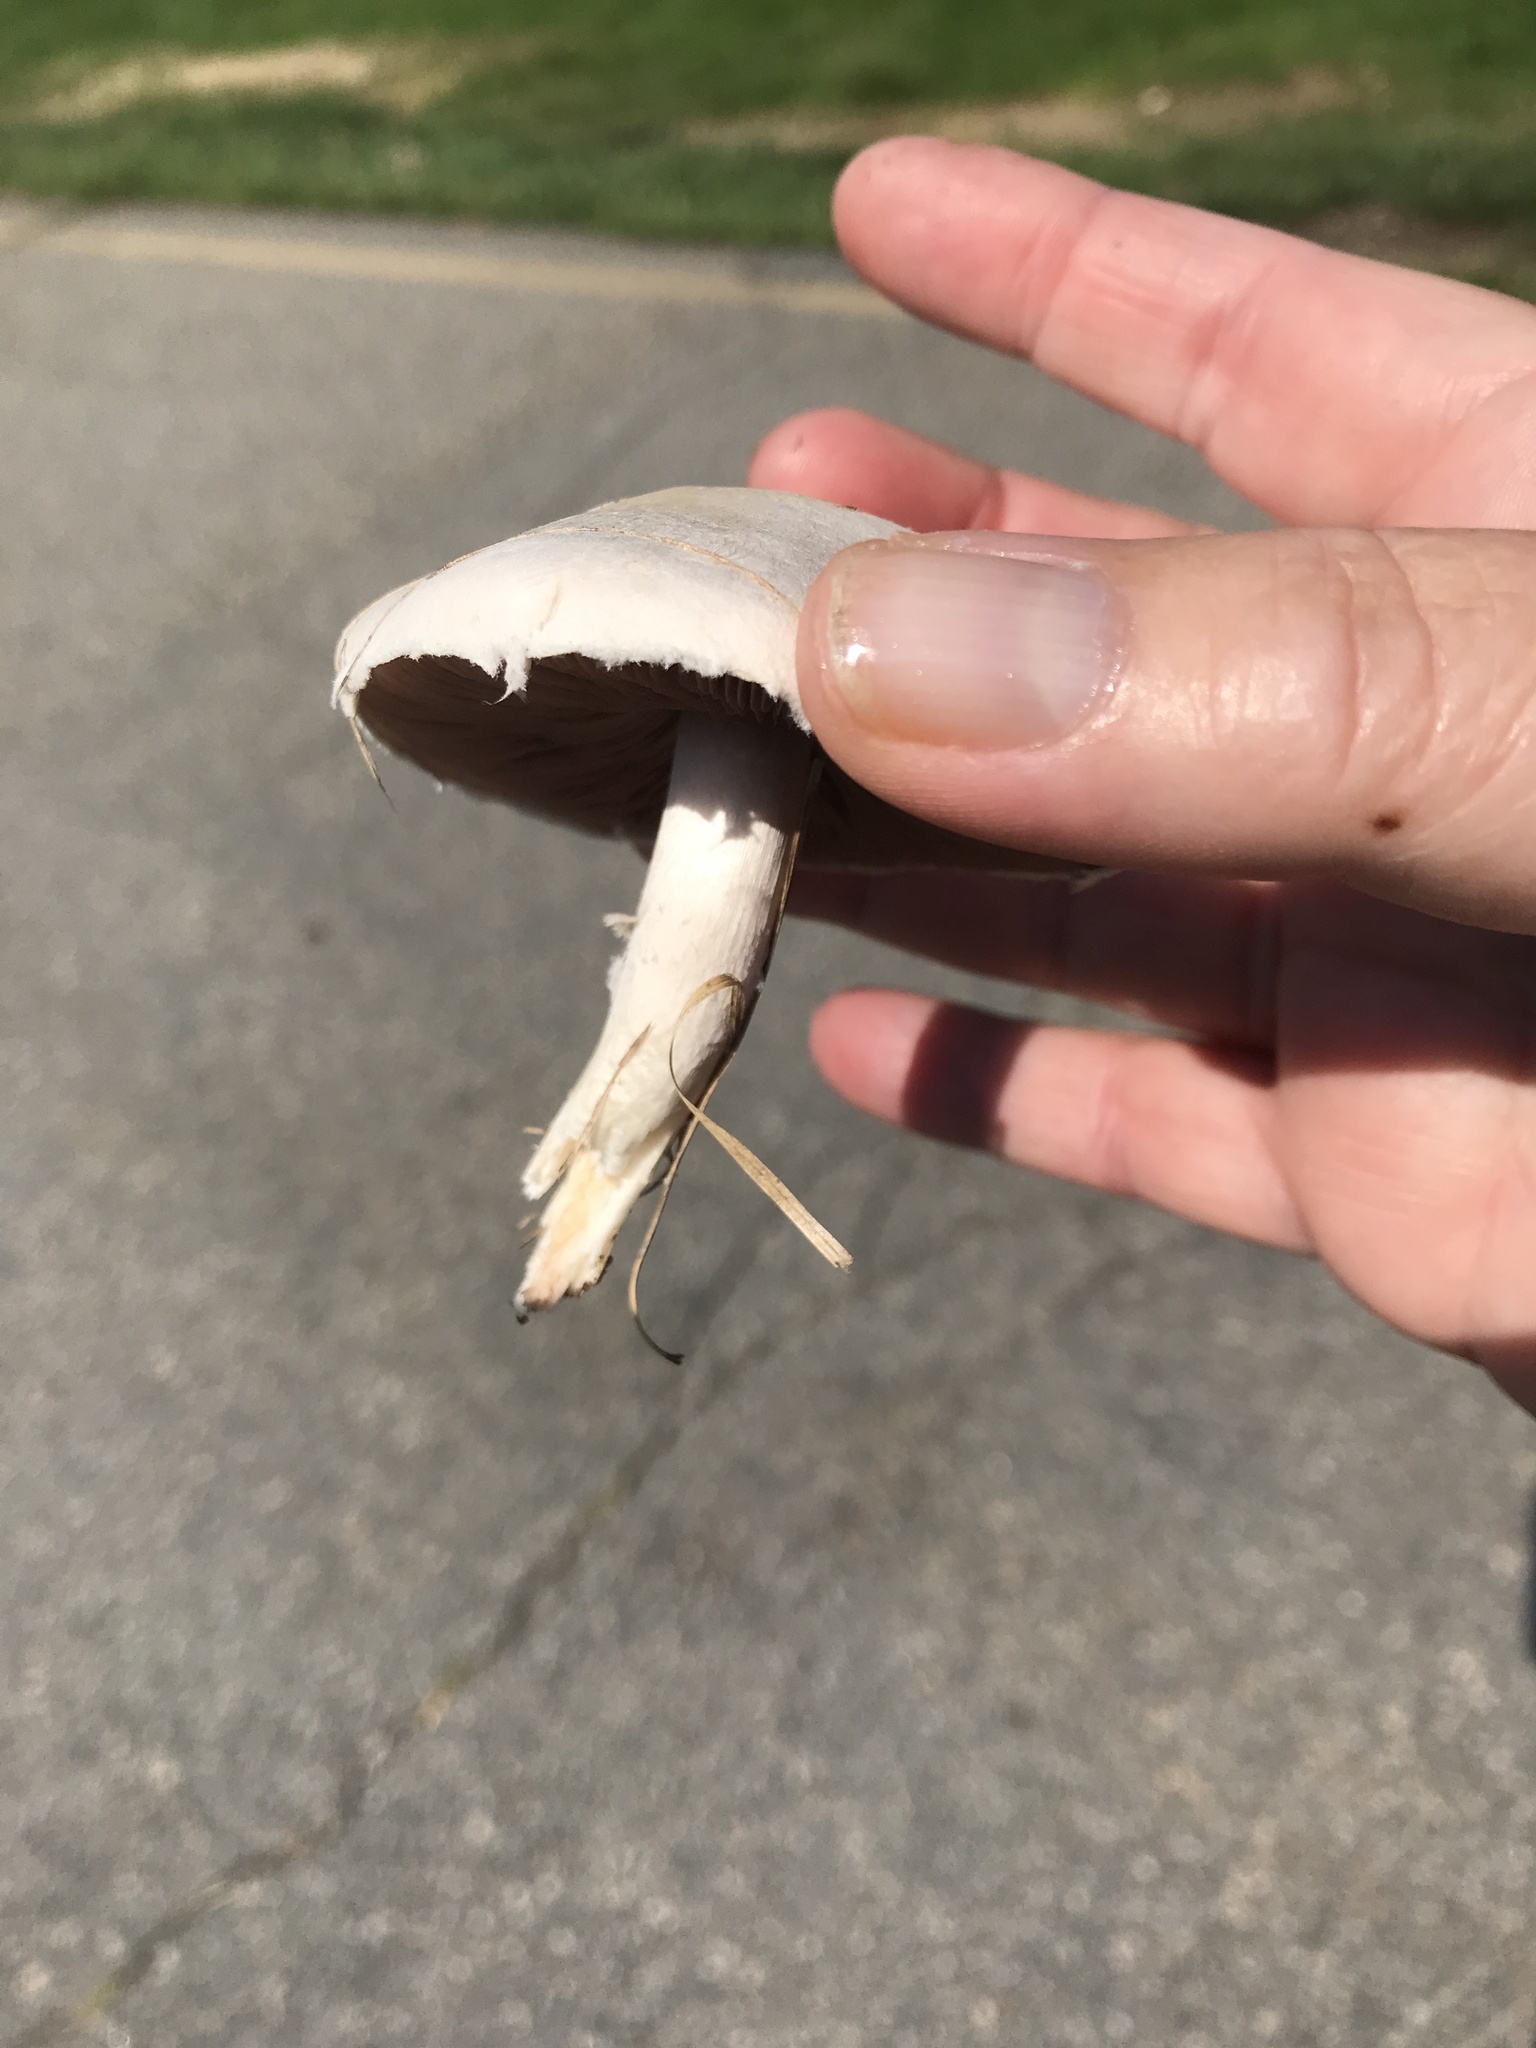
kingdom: Fungi
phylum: Basidiomycota
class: Agaricomycetes
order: Agaricales
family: Agaricaceae
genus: Agaricus
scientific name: Agaricus campestris
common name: Field mushroom
